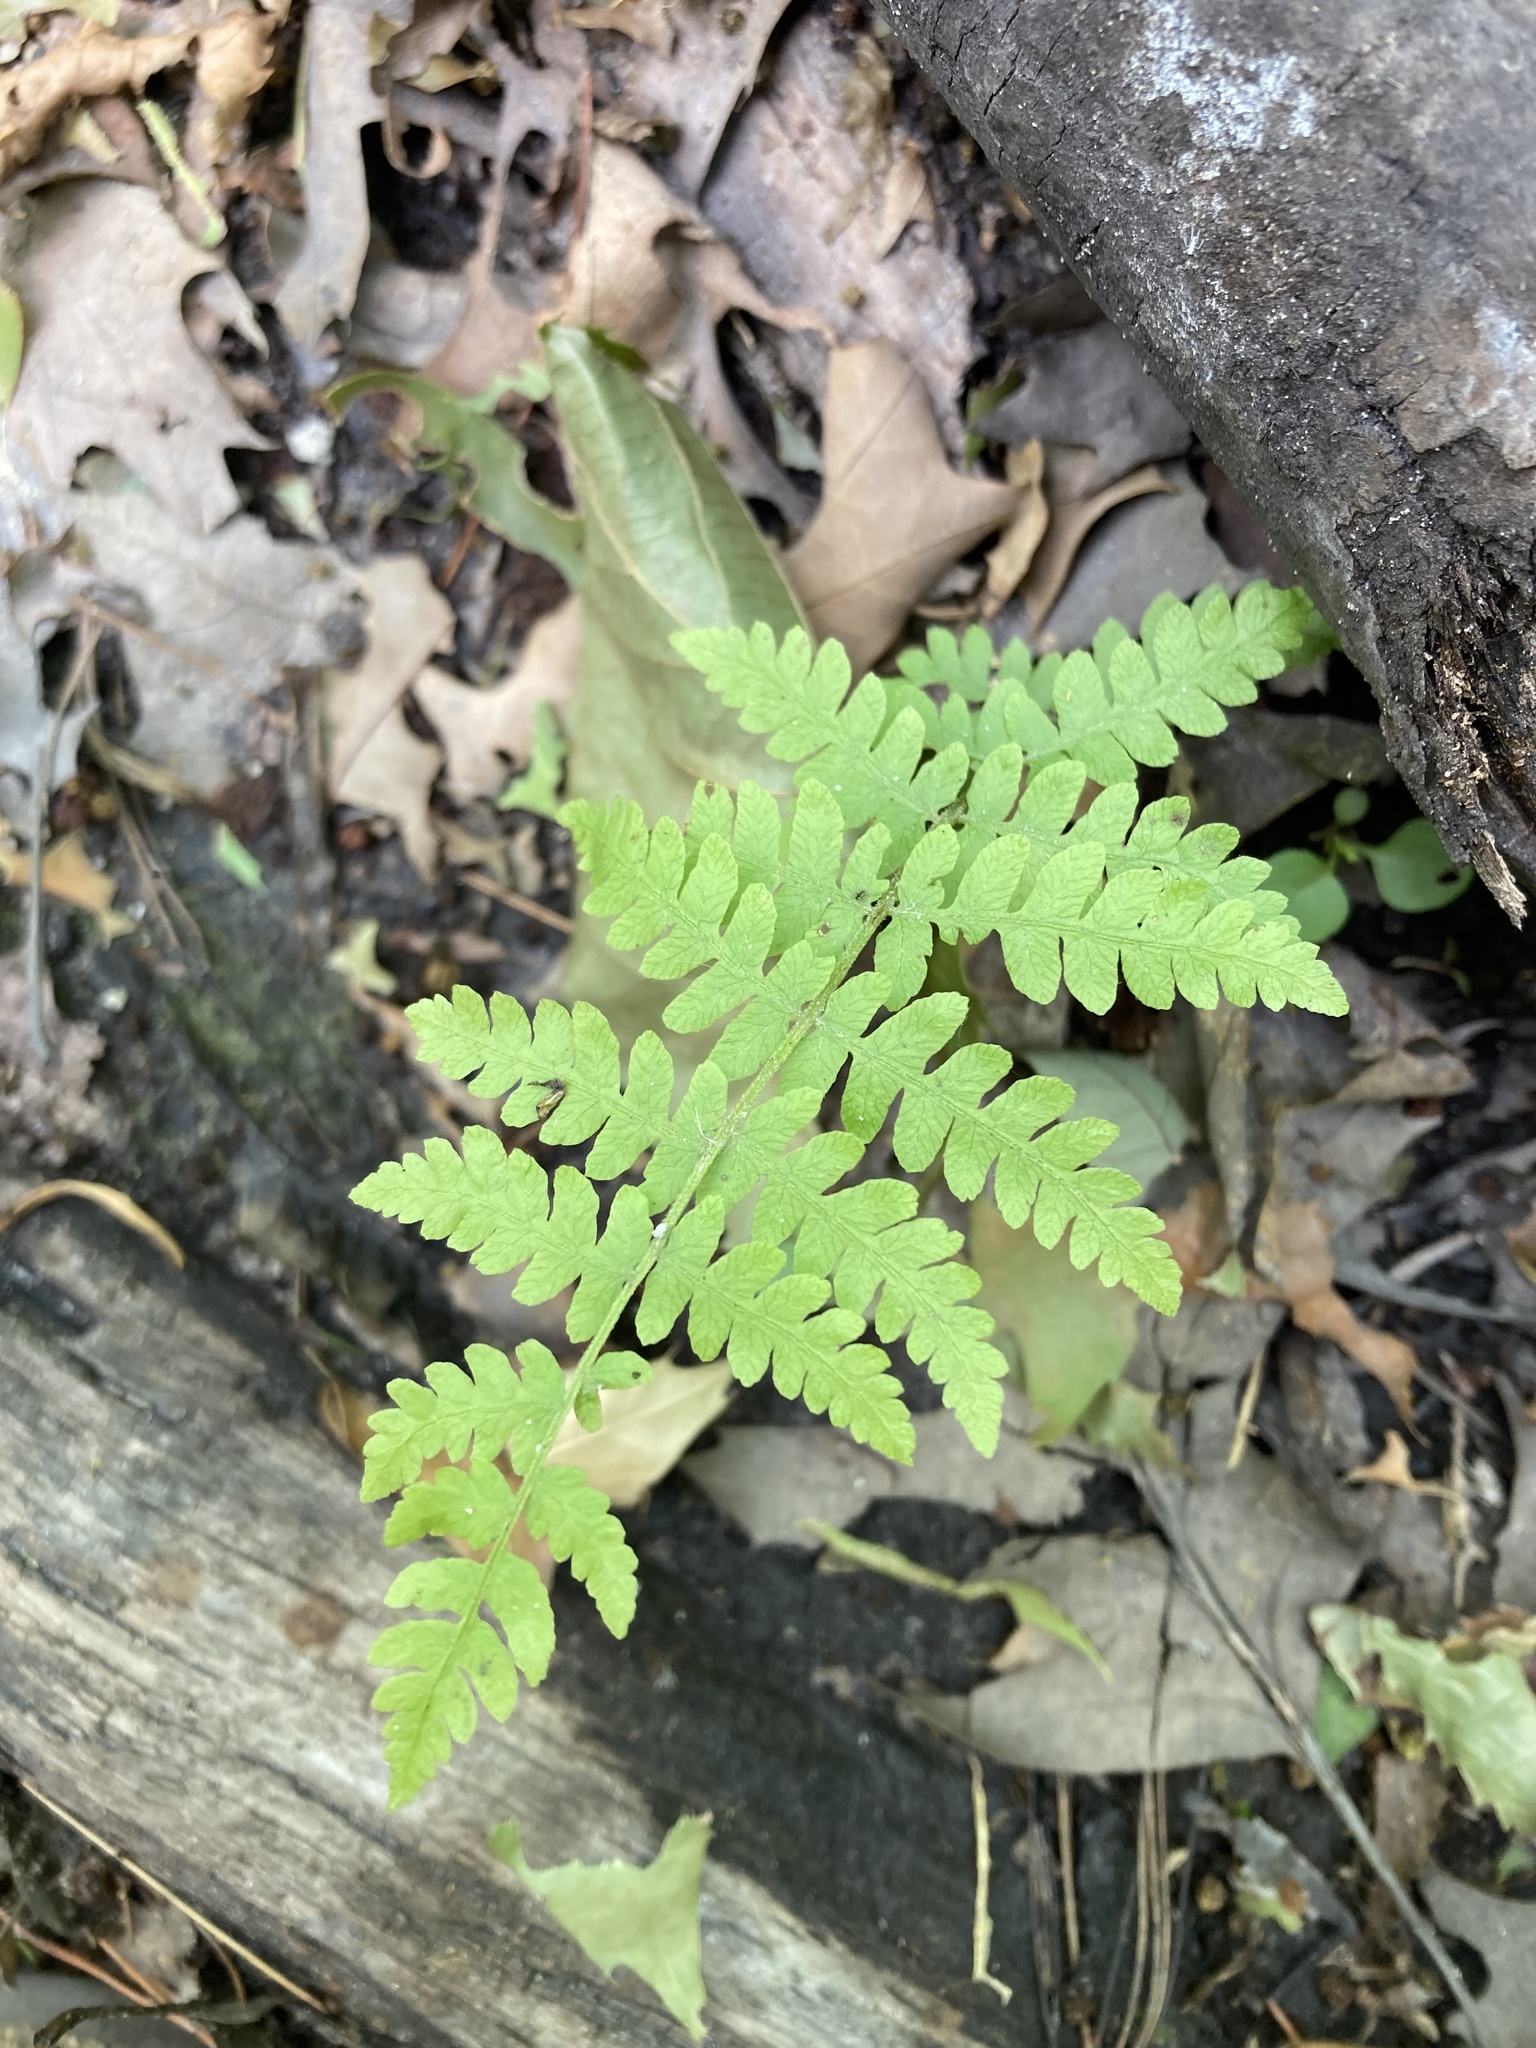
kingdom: Plantae
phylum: Tracheophyta
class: Polypodiopsida
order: Polypodiales
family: Thelypteridaceae
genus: Thelypteris
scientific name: Thelypteris palustris
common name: Marsh fern
